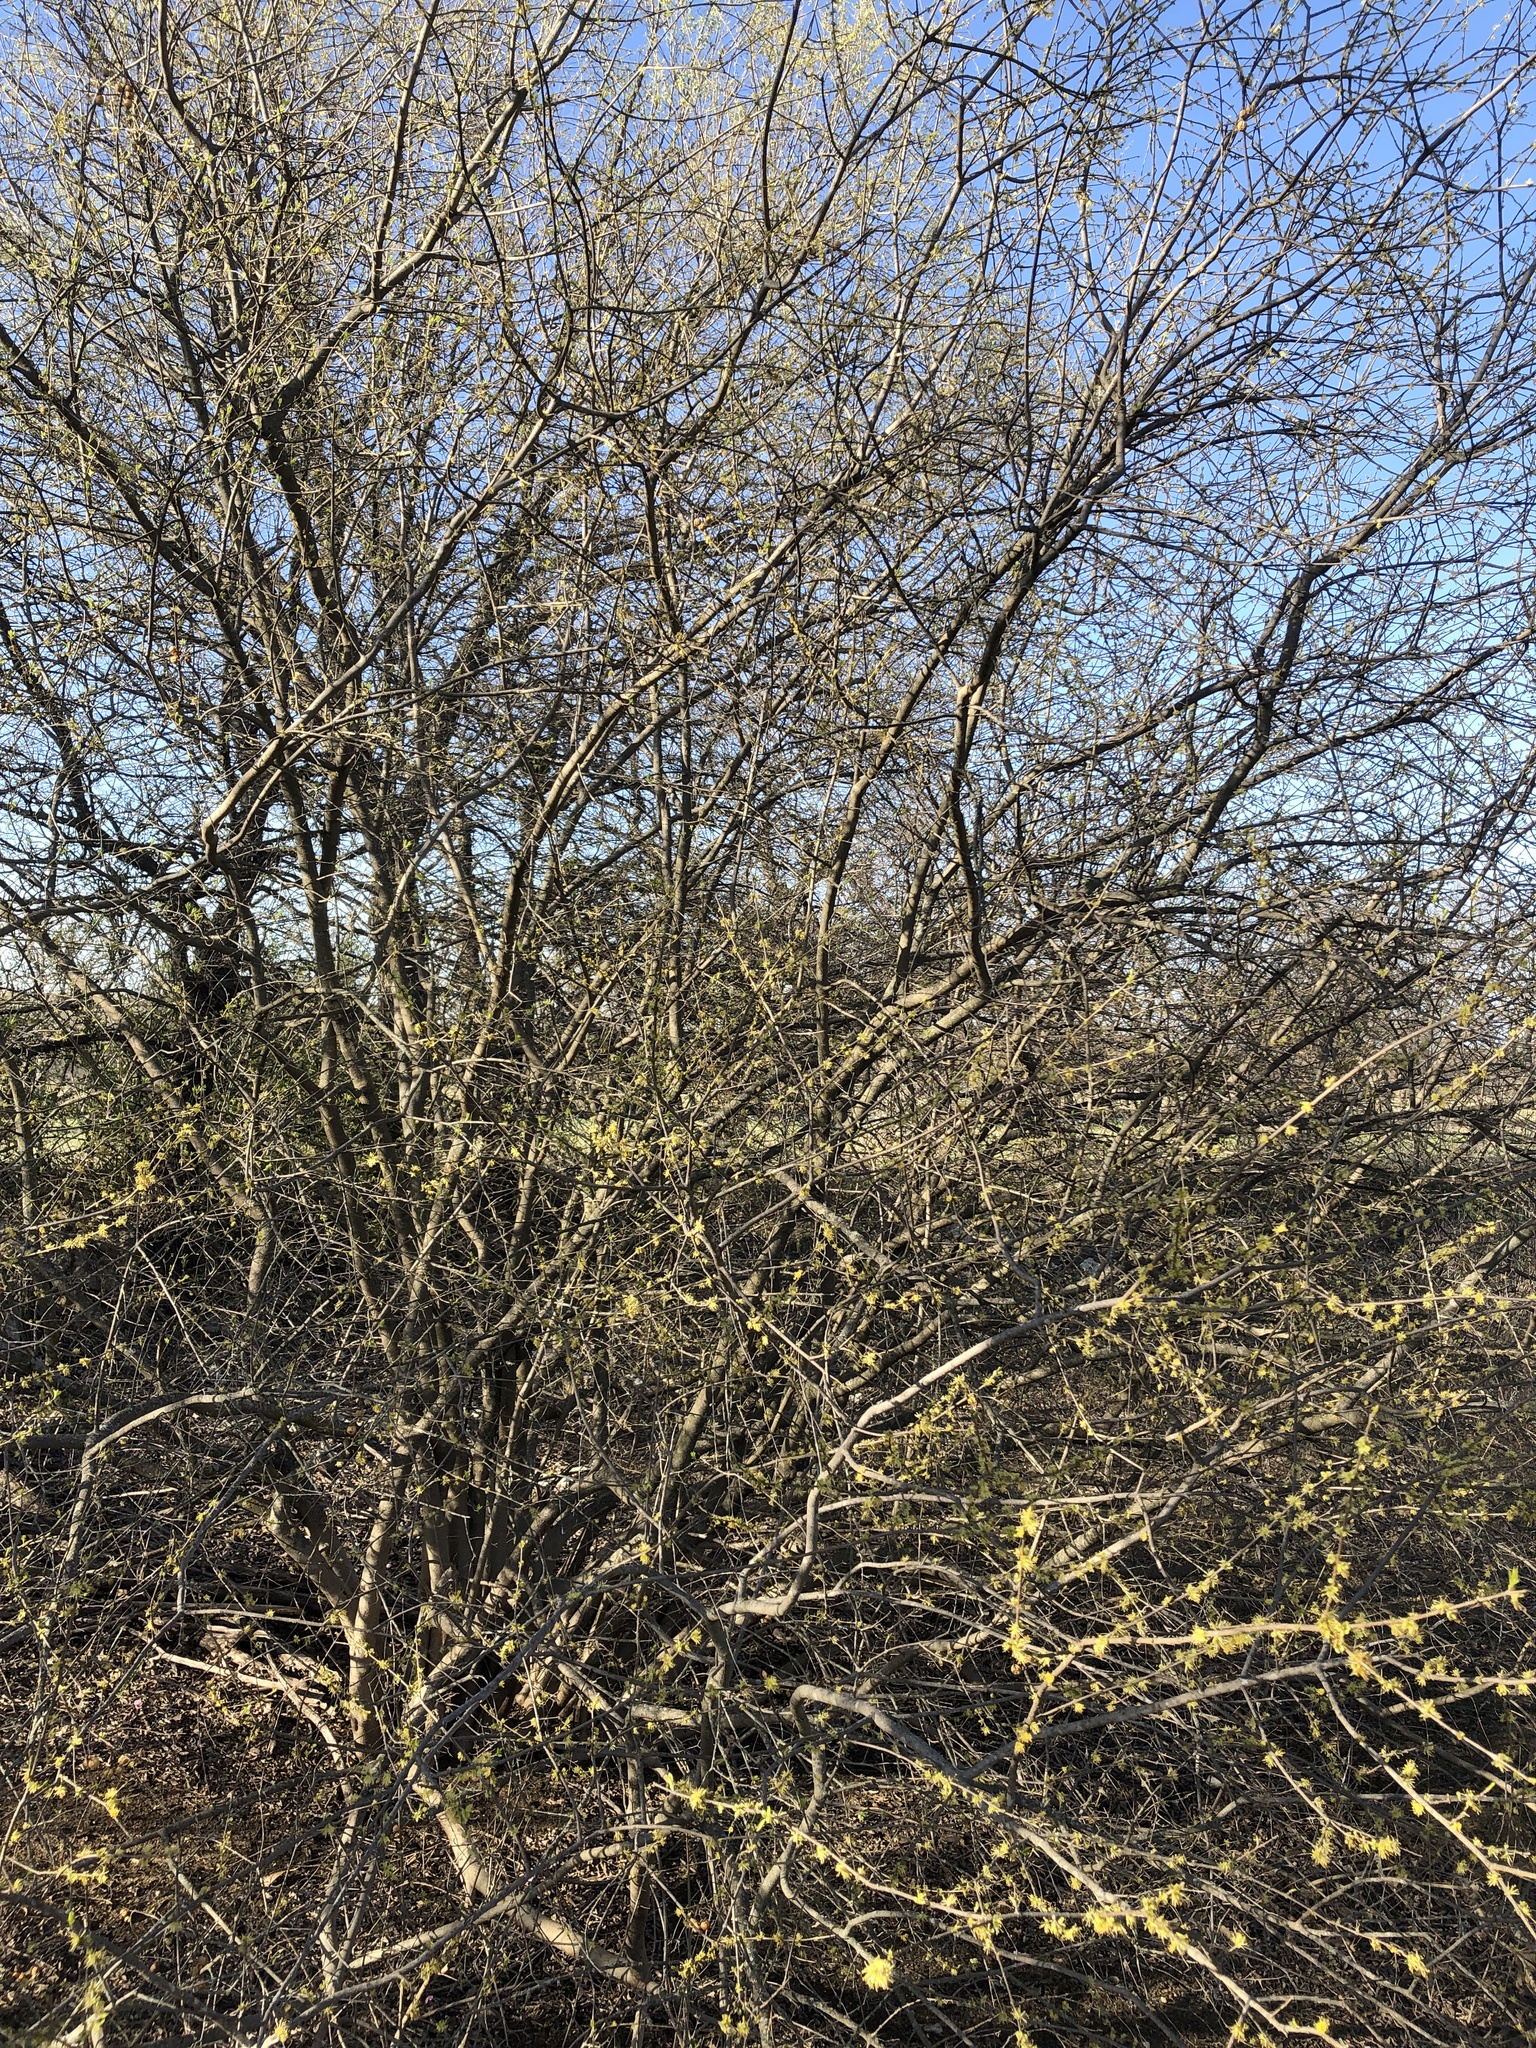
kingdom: Plantae
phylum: Tracheophyta
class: Magnoliopsida
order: Lamiales
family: Oleaceae
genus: Forestiera
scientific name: Forestiera pubescens
